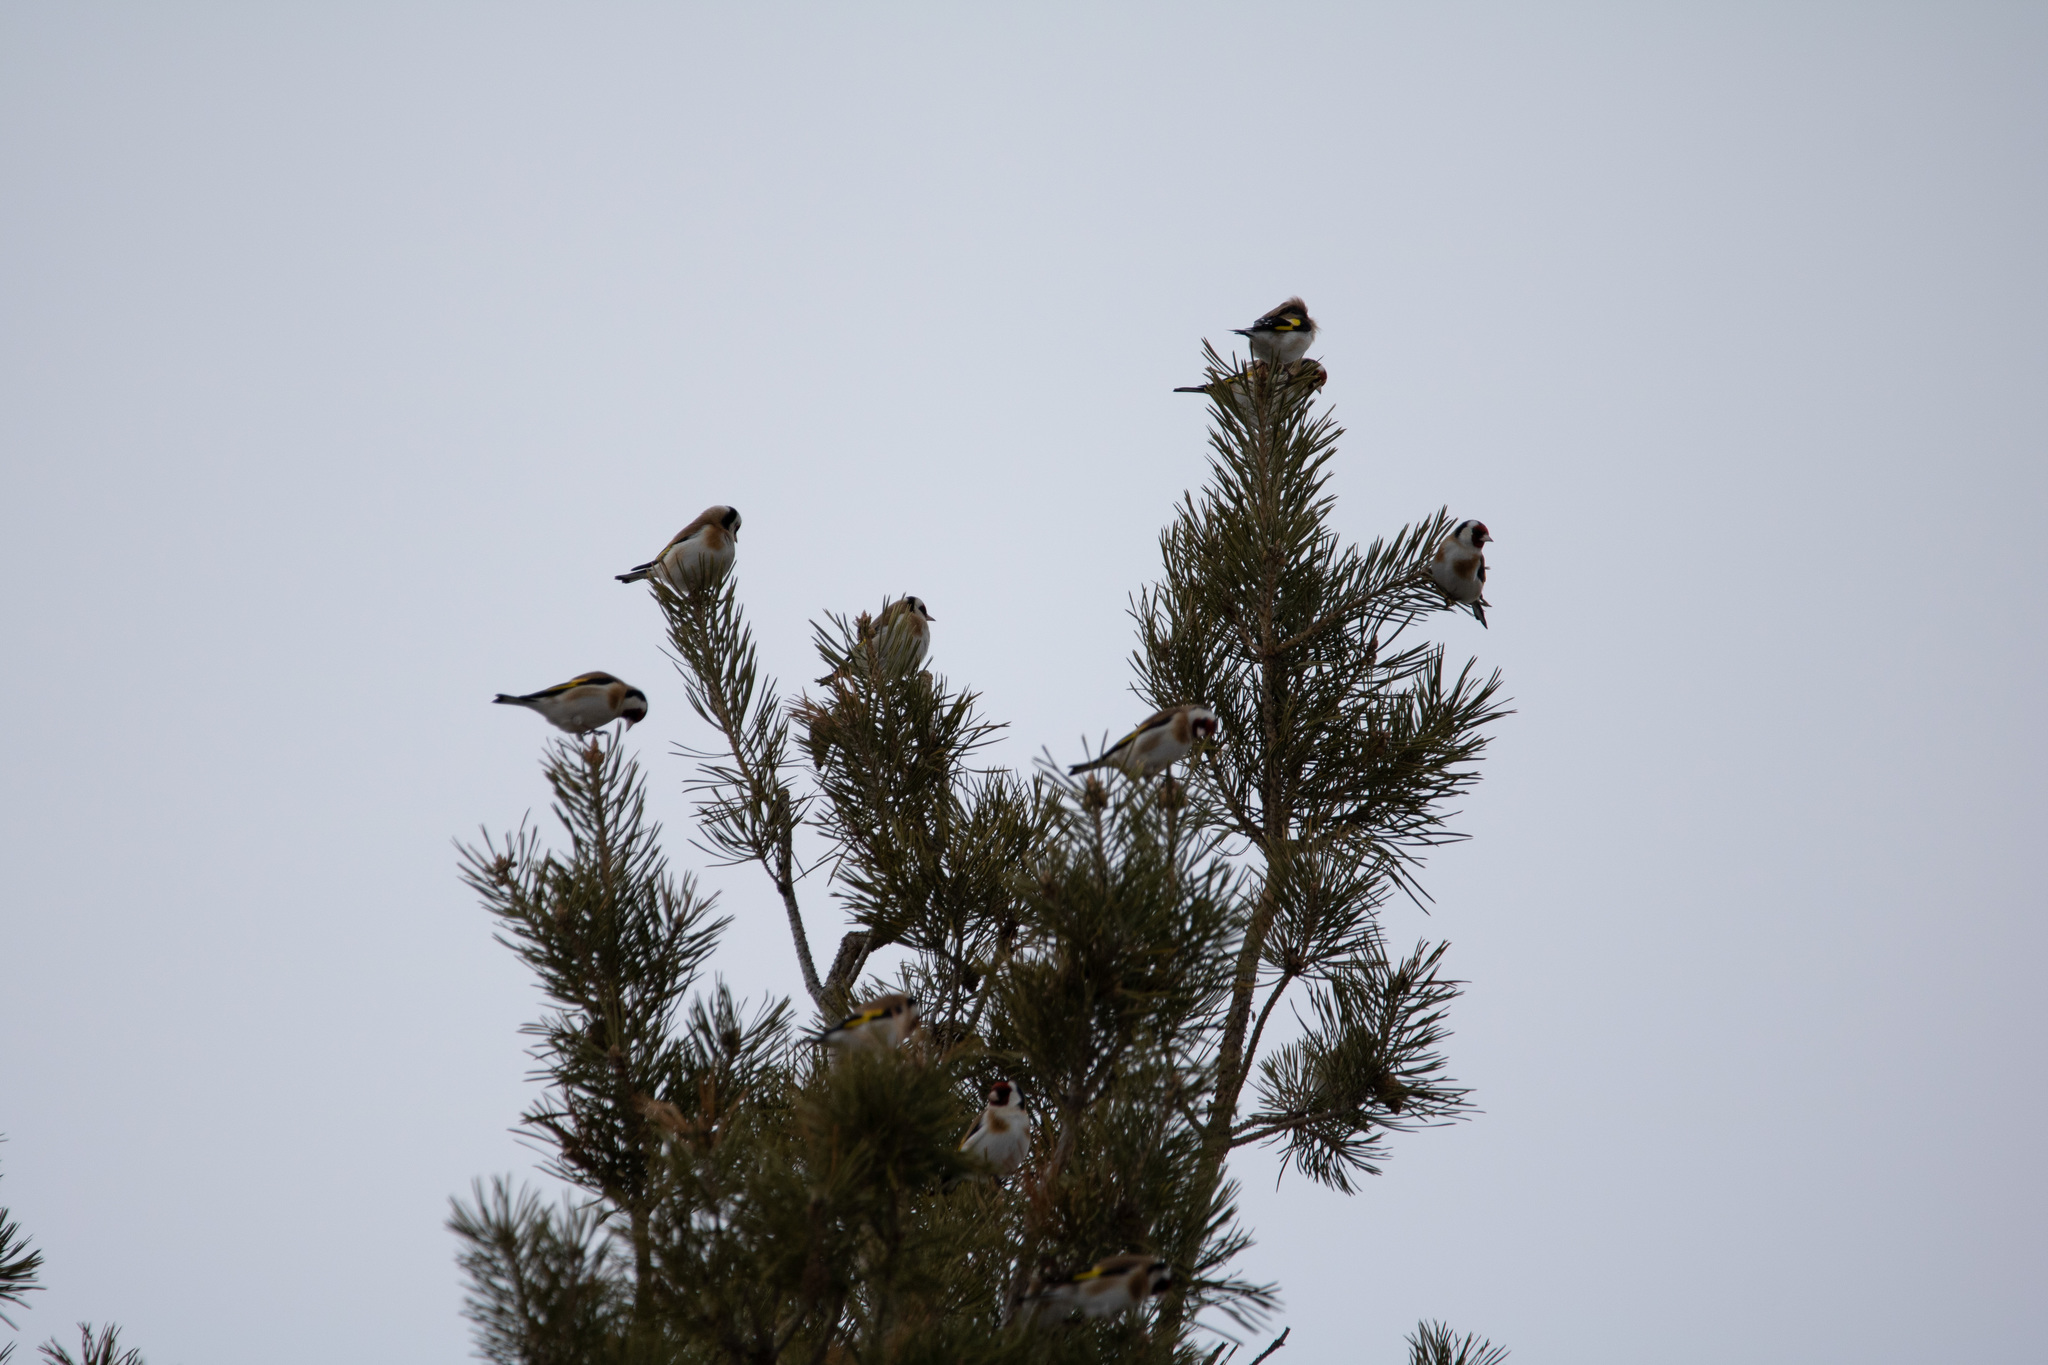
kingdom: Animalia
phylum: Chordata
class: Aves
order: Passeriformes
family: Fringillidae
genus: Carduelis
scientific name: Carduelis carduelis
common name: European goldfinch
